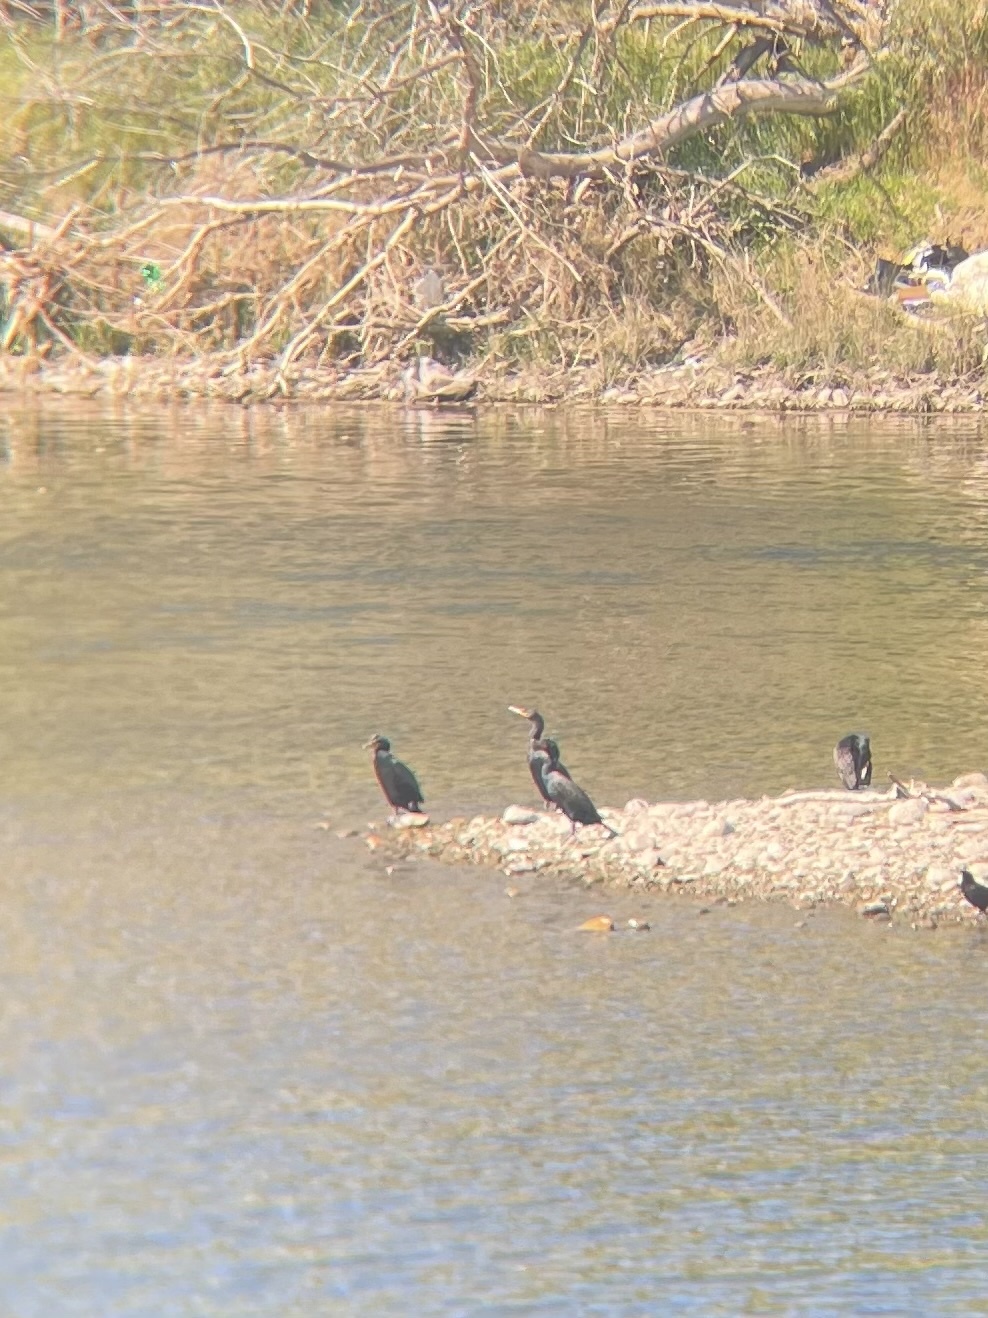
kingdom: Animalia
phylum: Chordata
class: Aves
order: Suliformes
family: Phalacrocoracidae
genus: Phalacrocorax
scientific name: Phalacrocorax auritus
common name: Double-crested cormorant
